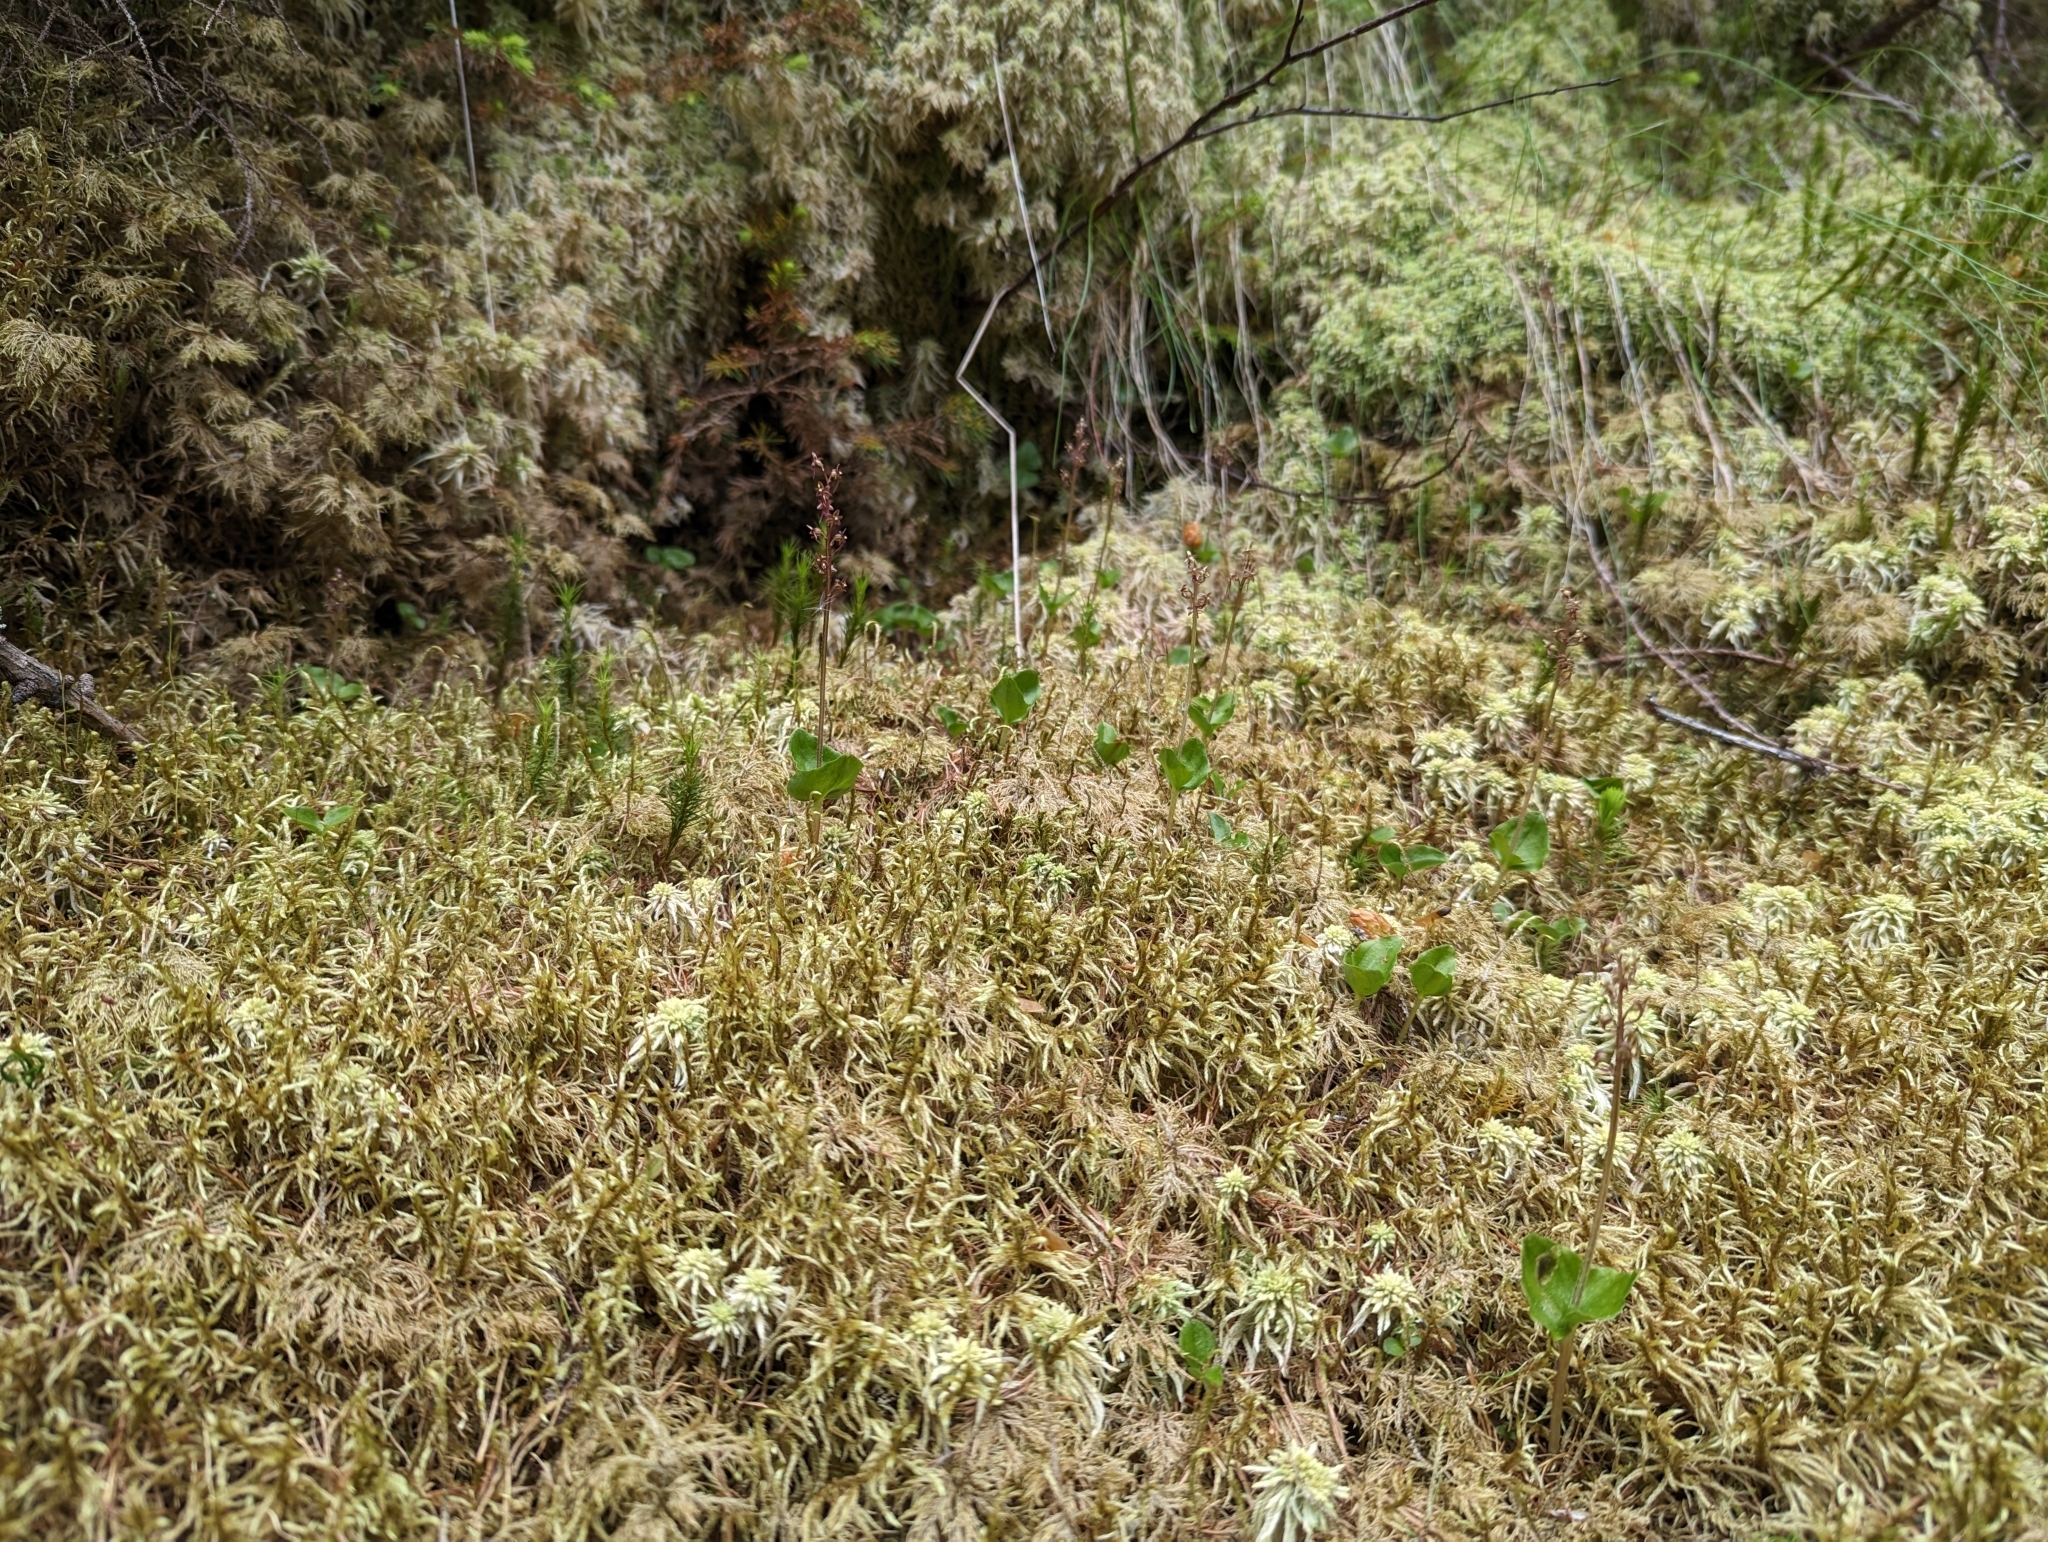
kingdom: Plantae
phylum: Tracheophyta
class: Liliopsida
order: Asparagales
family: Orchidaceae
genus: Neottia
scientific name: Neottia cordata
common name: Lesser twayblade
